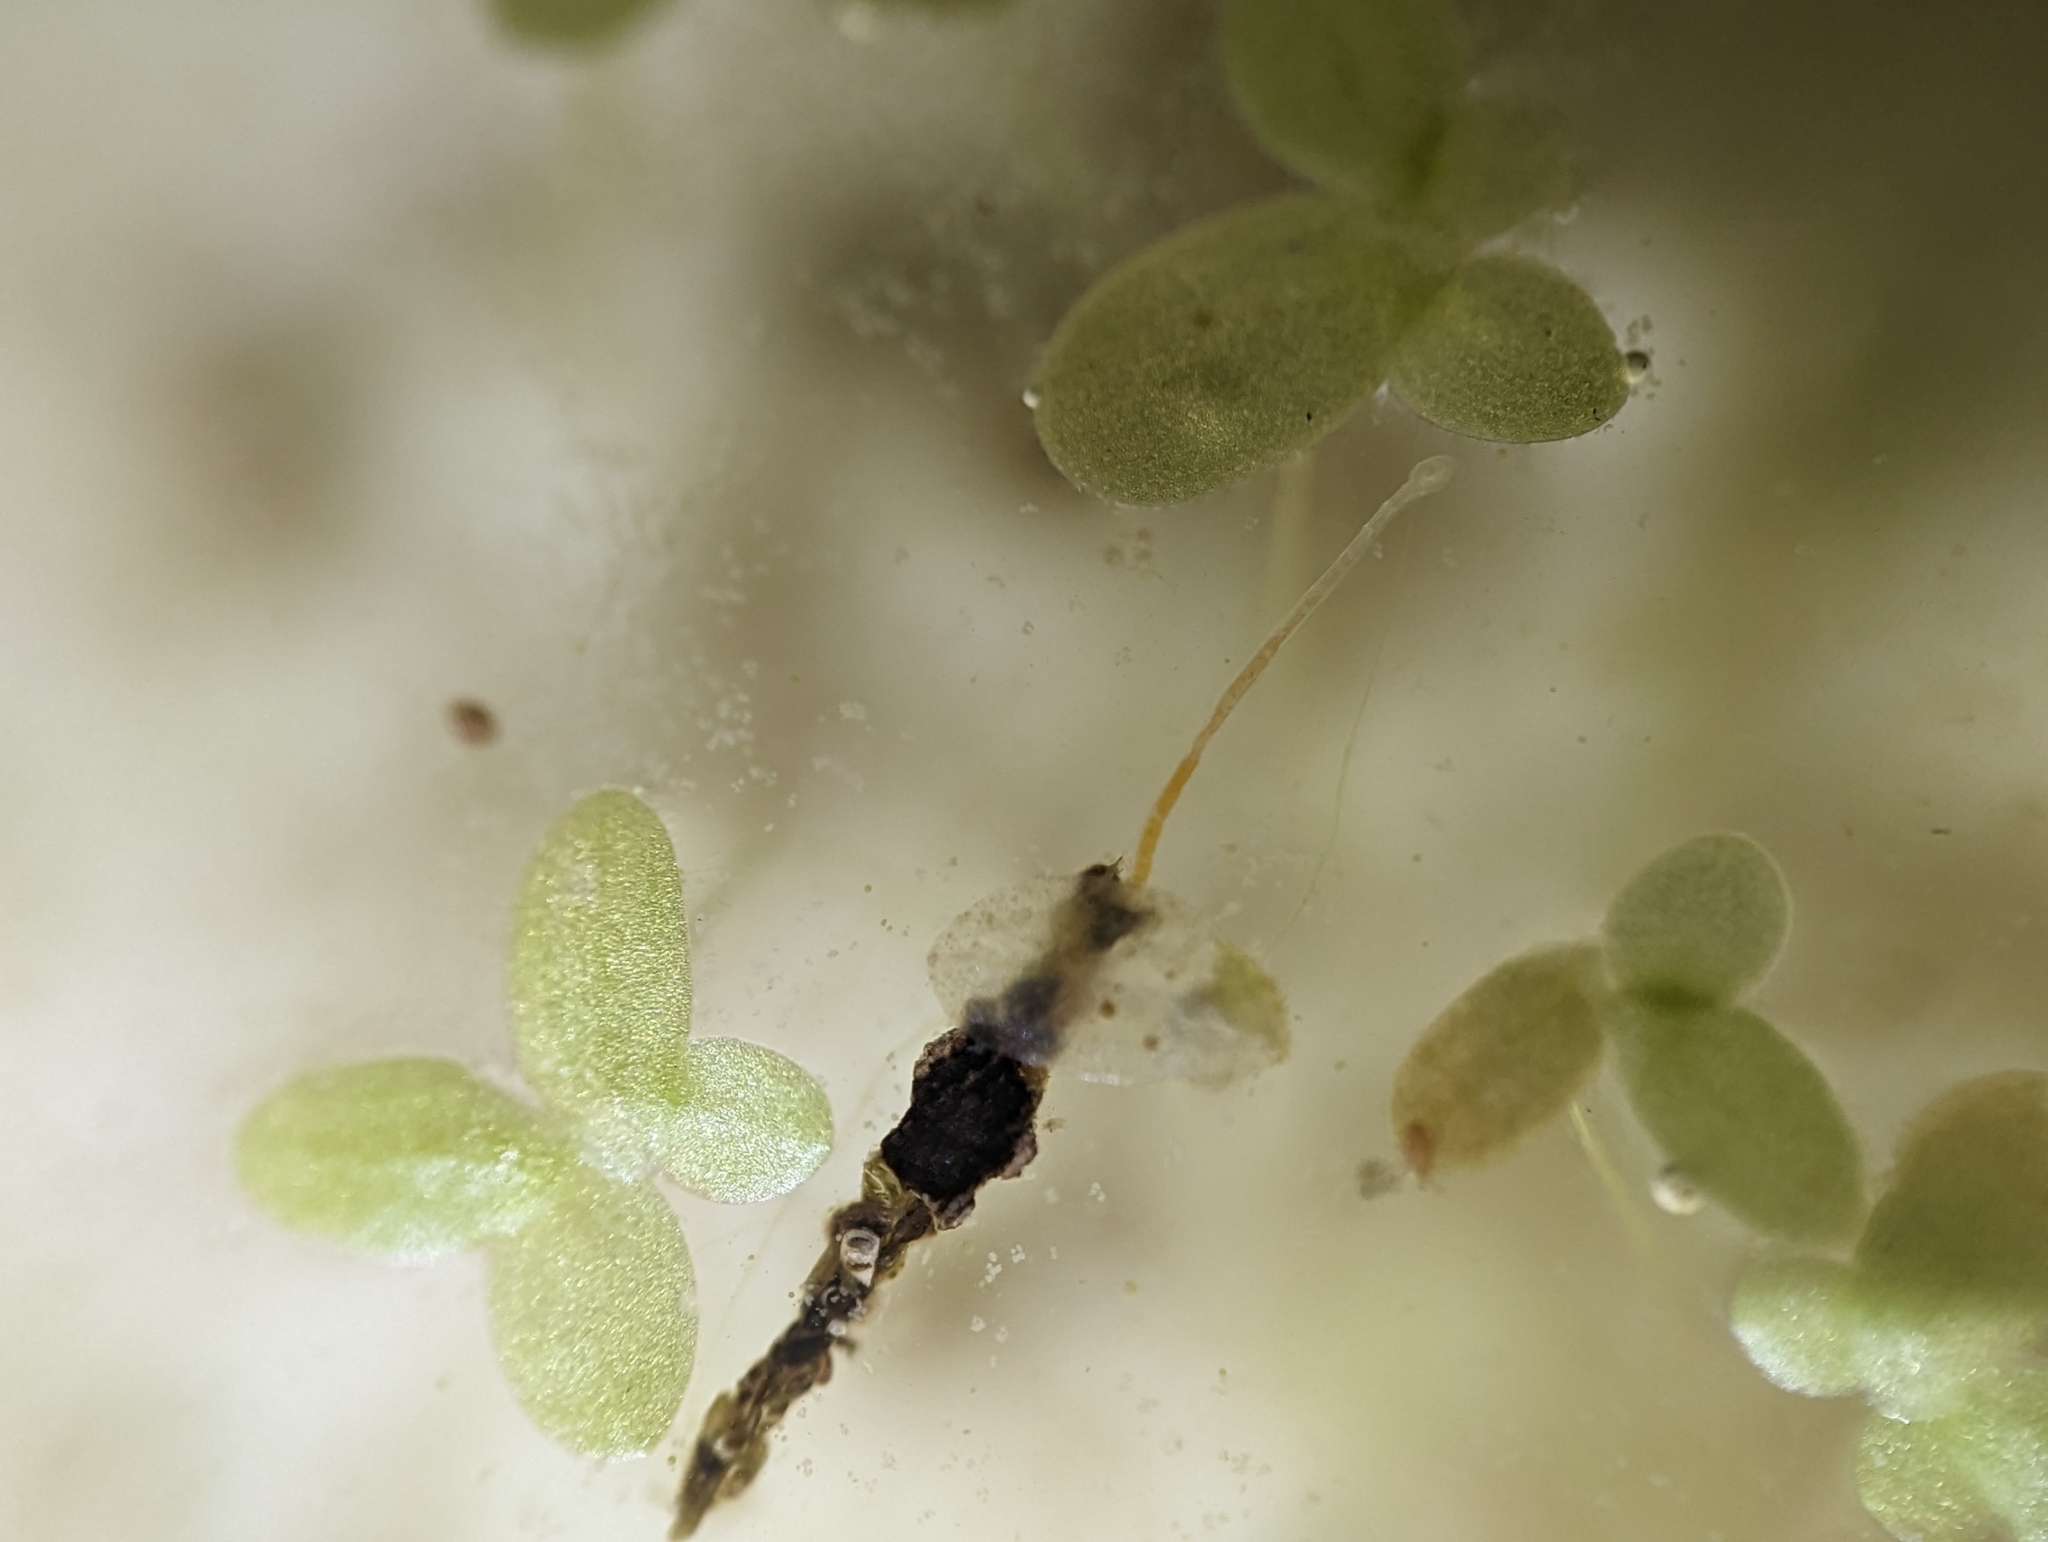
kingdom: Animalia
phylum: Annelida
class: Clitellata
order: Tubificida
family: Naididae
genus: Aulophorus
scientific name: Aulophorus vagus
